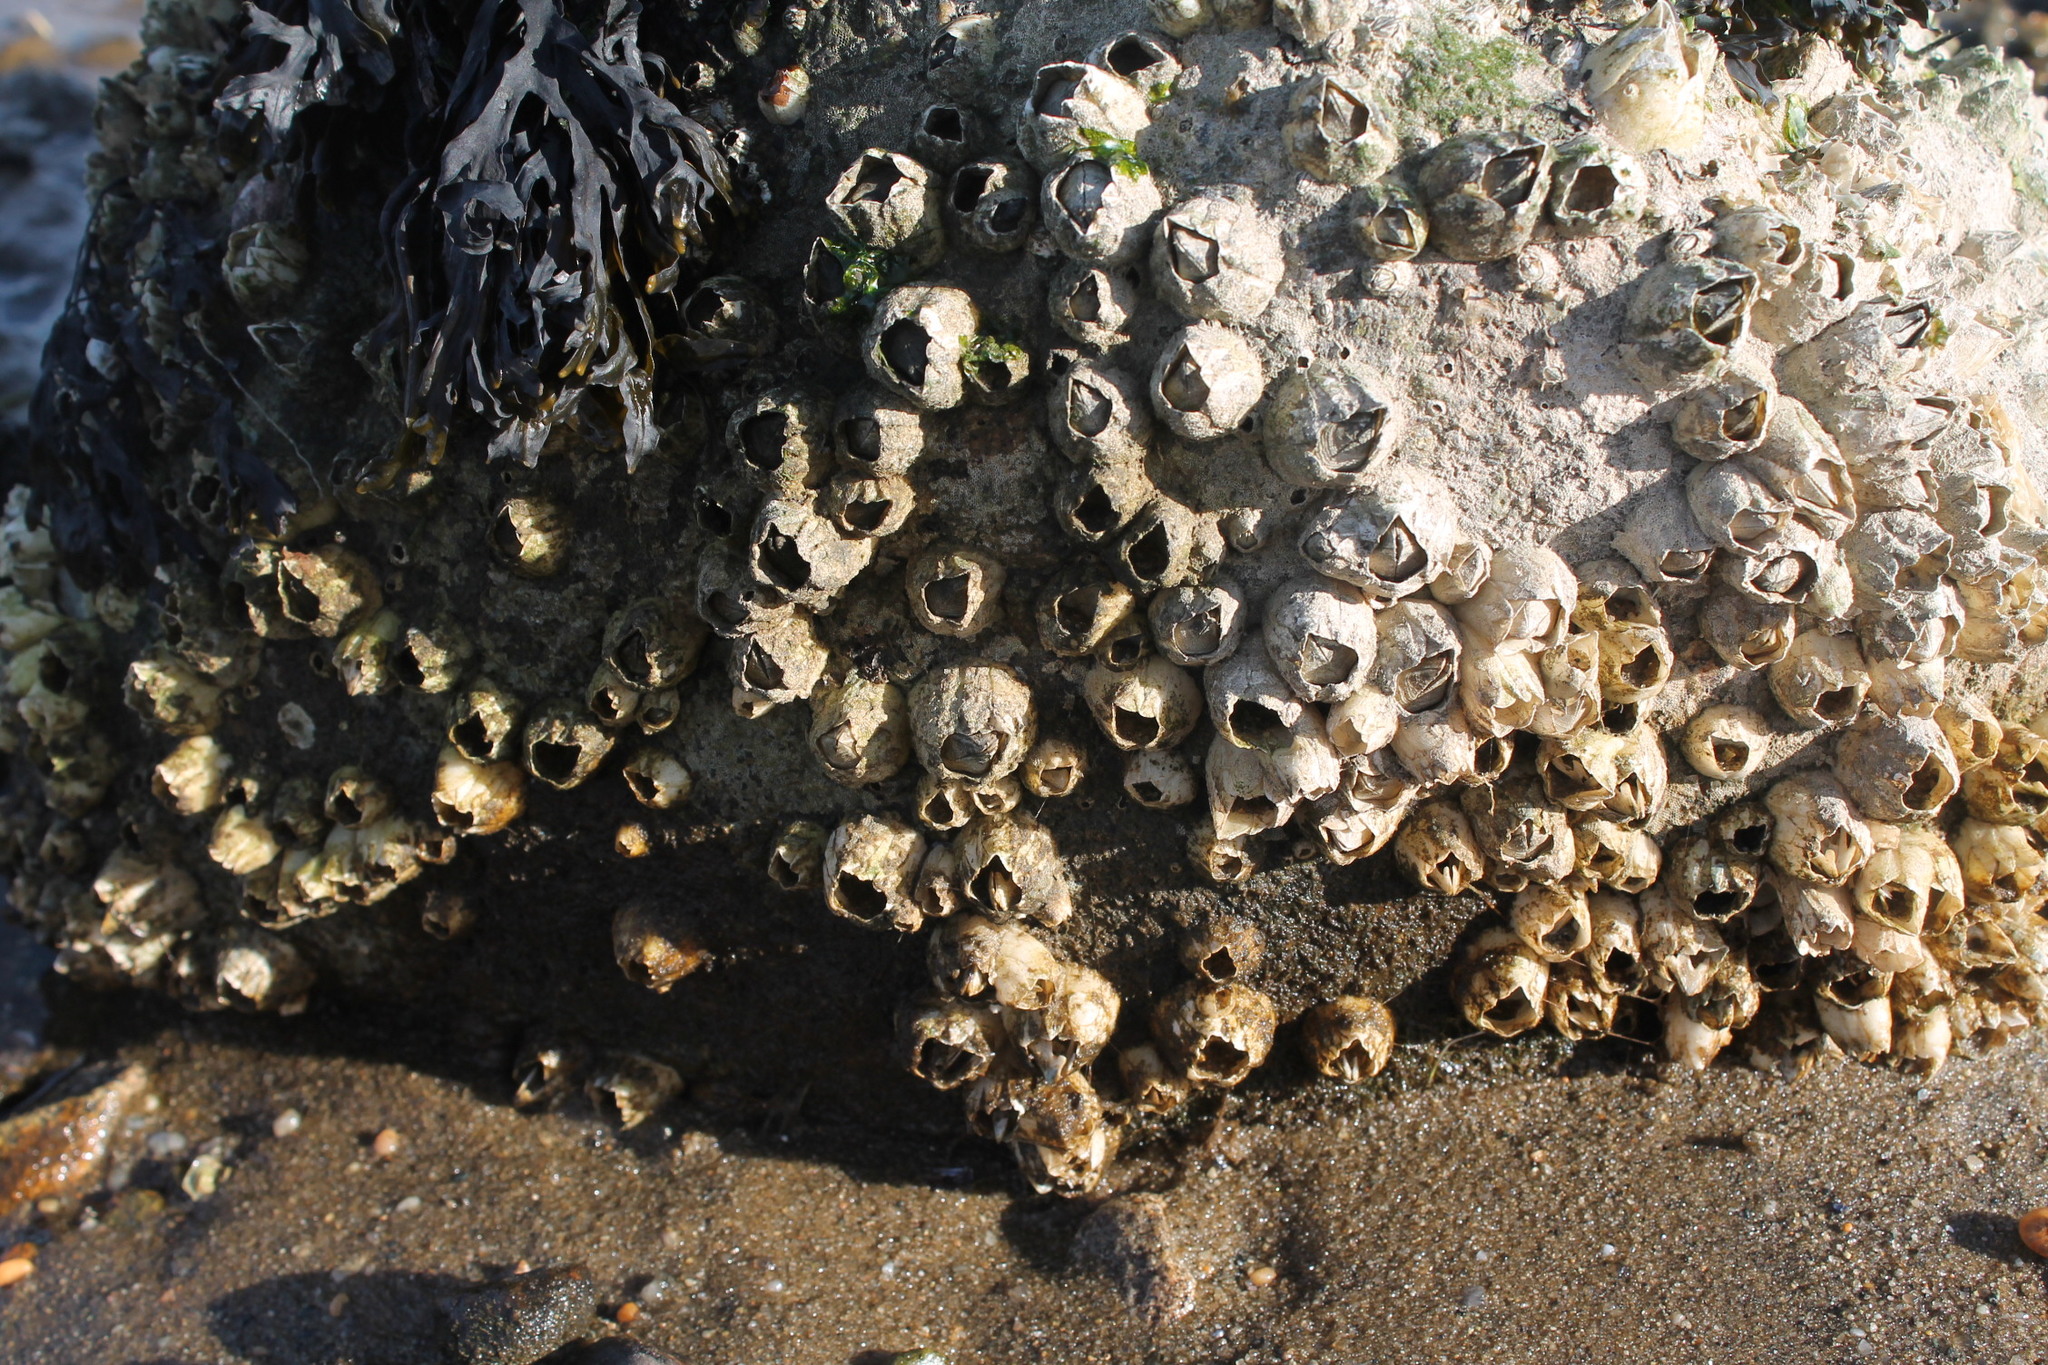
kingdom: Animalia
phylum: Arthropoda
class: Maxillopoda
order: Sessilia
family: Archaeobalanidae
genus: Semibalanus
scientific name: Semibalanus balanoides
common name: Acorn barnacle
